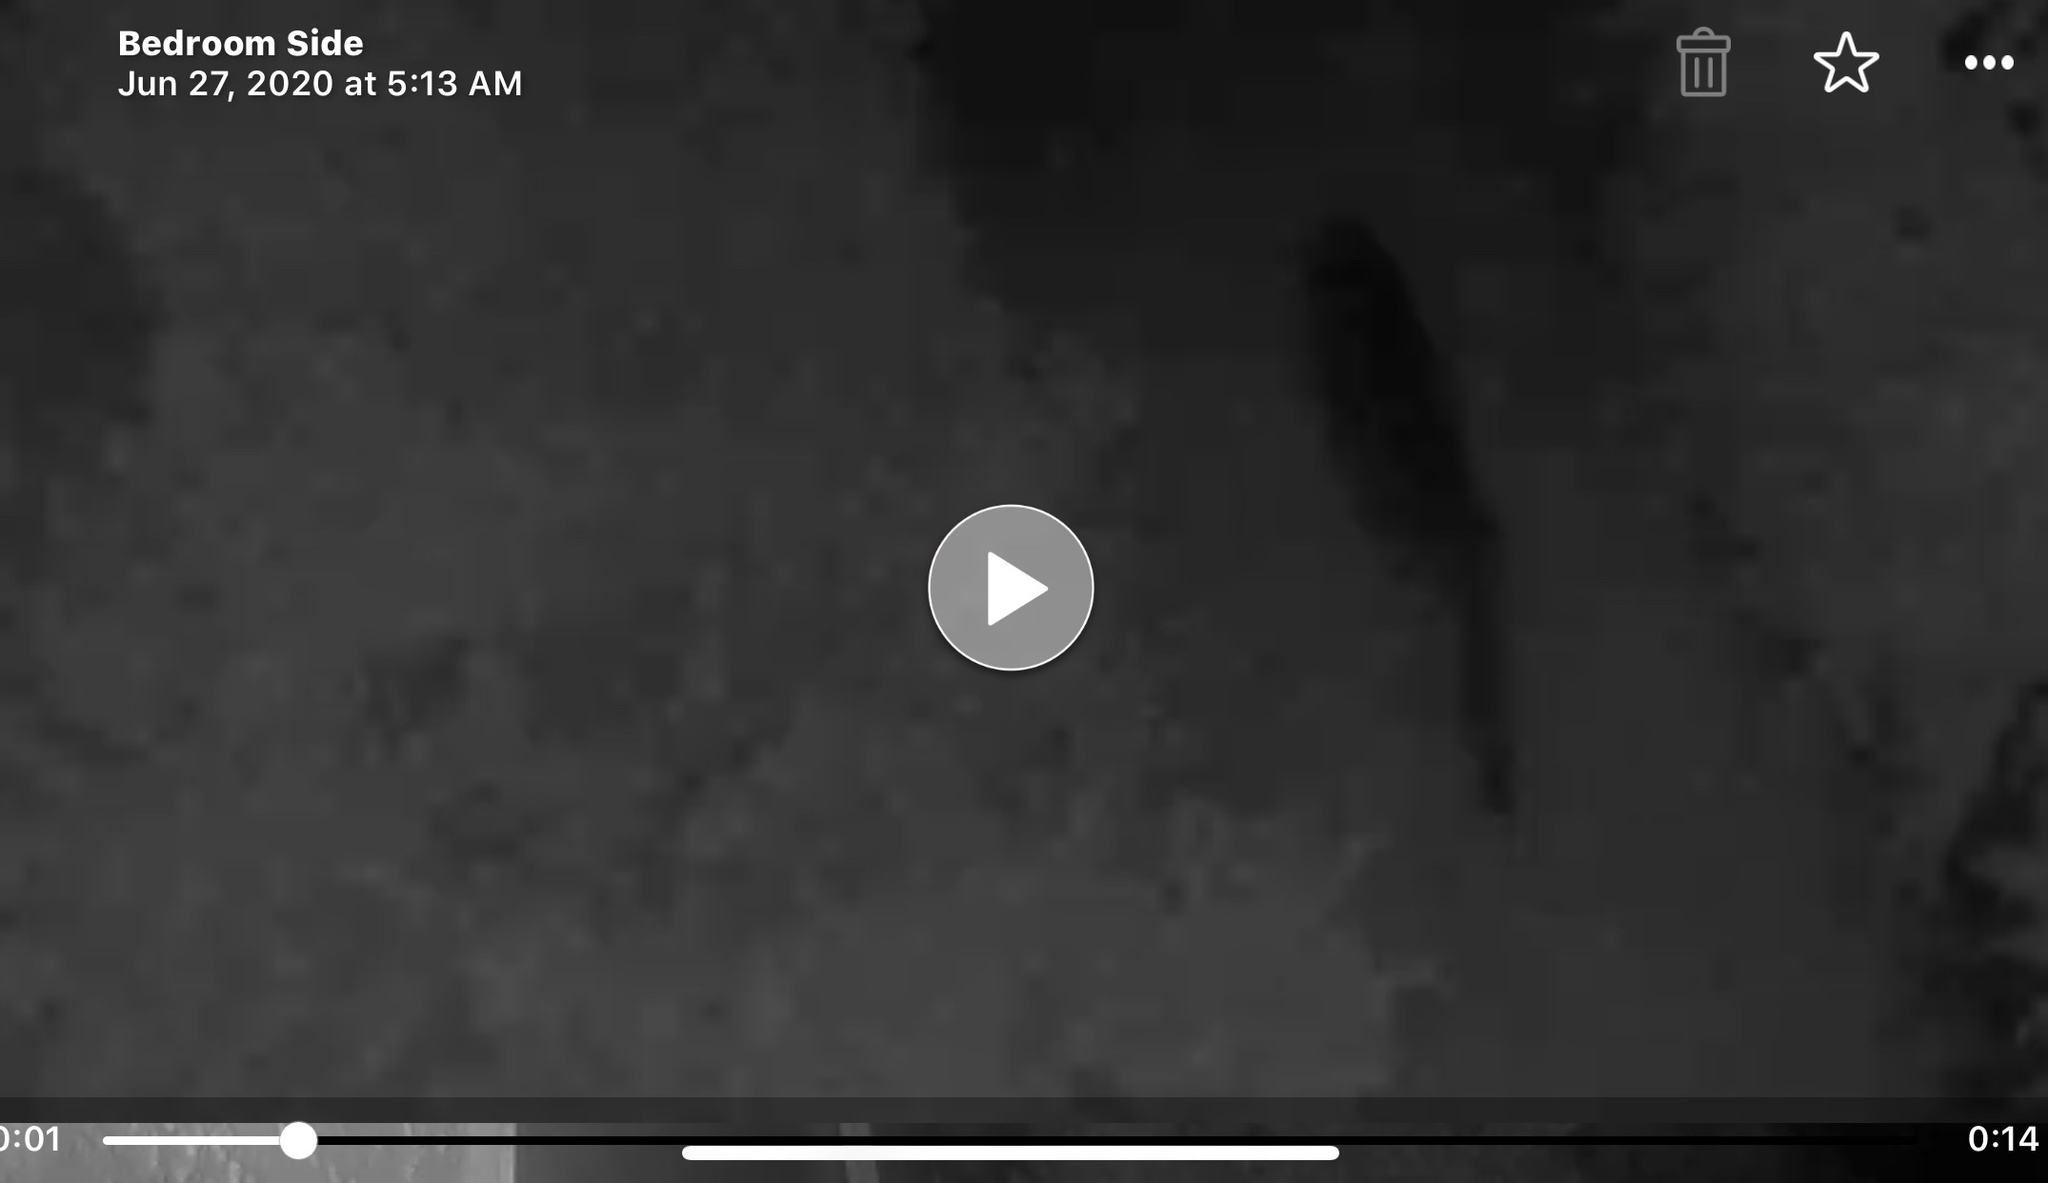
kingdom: Animalia
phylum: Chordata
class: Mammalia
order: Carnivora
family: Felidae
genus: Puma
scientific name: Puma concolor
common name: Puma
